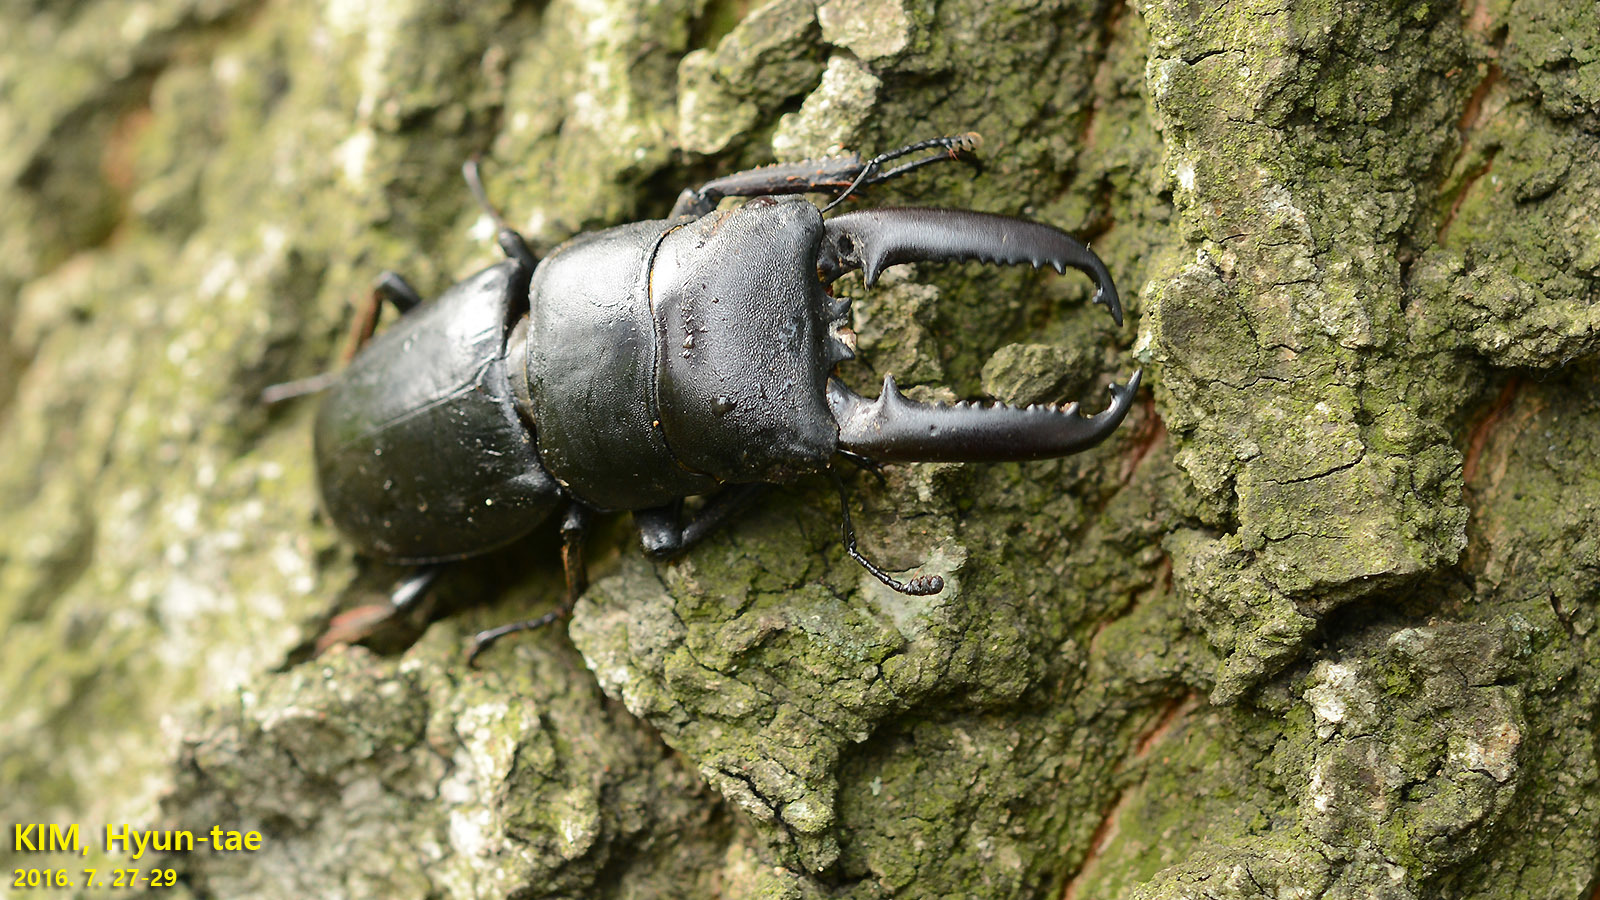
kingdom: Animalia
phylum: Arthropoda
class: Insecta
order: Coleoptera
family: Lucanidae
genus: Serrognathus
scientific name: Serrognathus titanus
